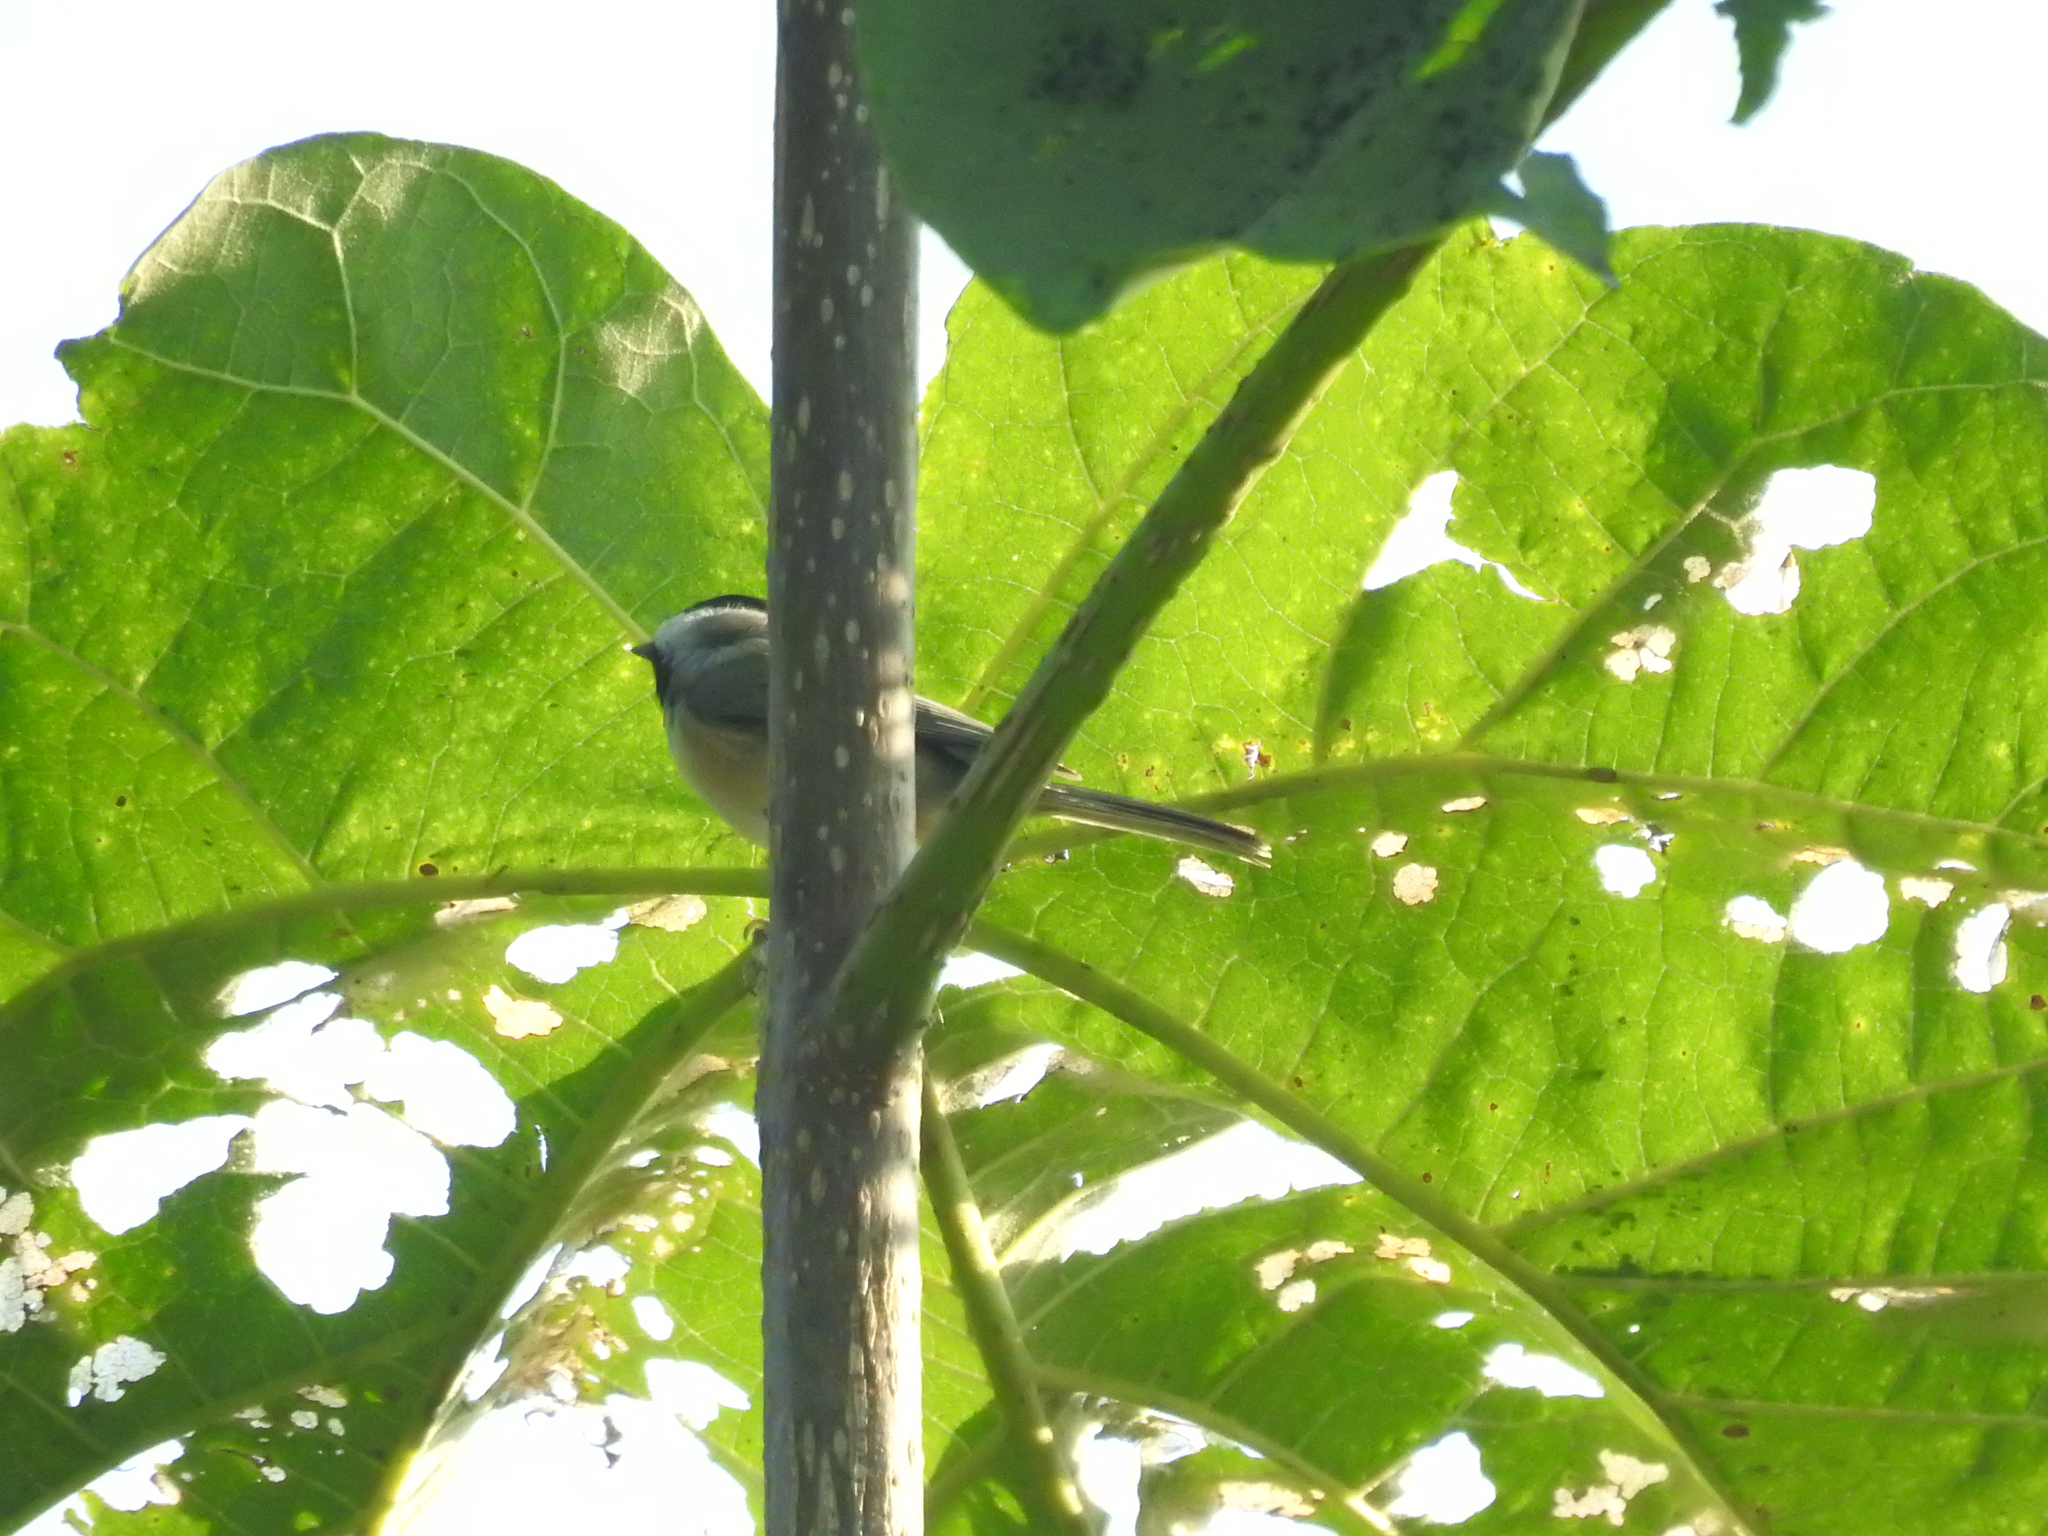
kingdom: Animalia
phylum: Chordata
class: Aves
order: Passeriformes
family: Paridae
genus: Poecile
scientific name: Poecile carolinensis
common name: Carolina chickadee
